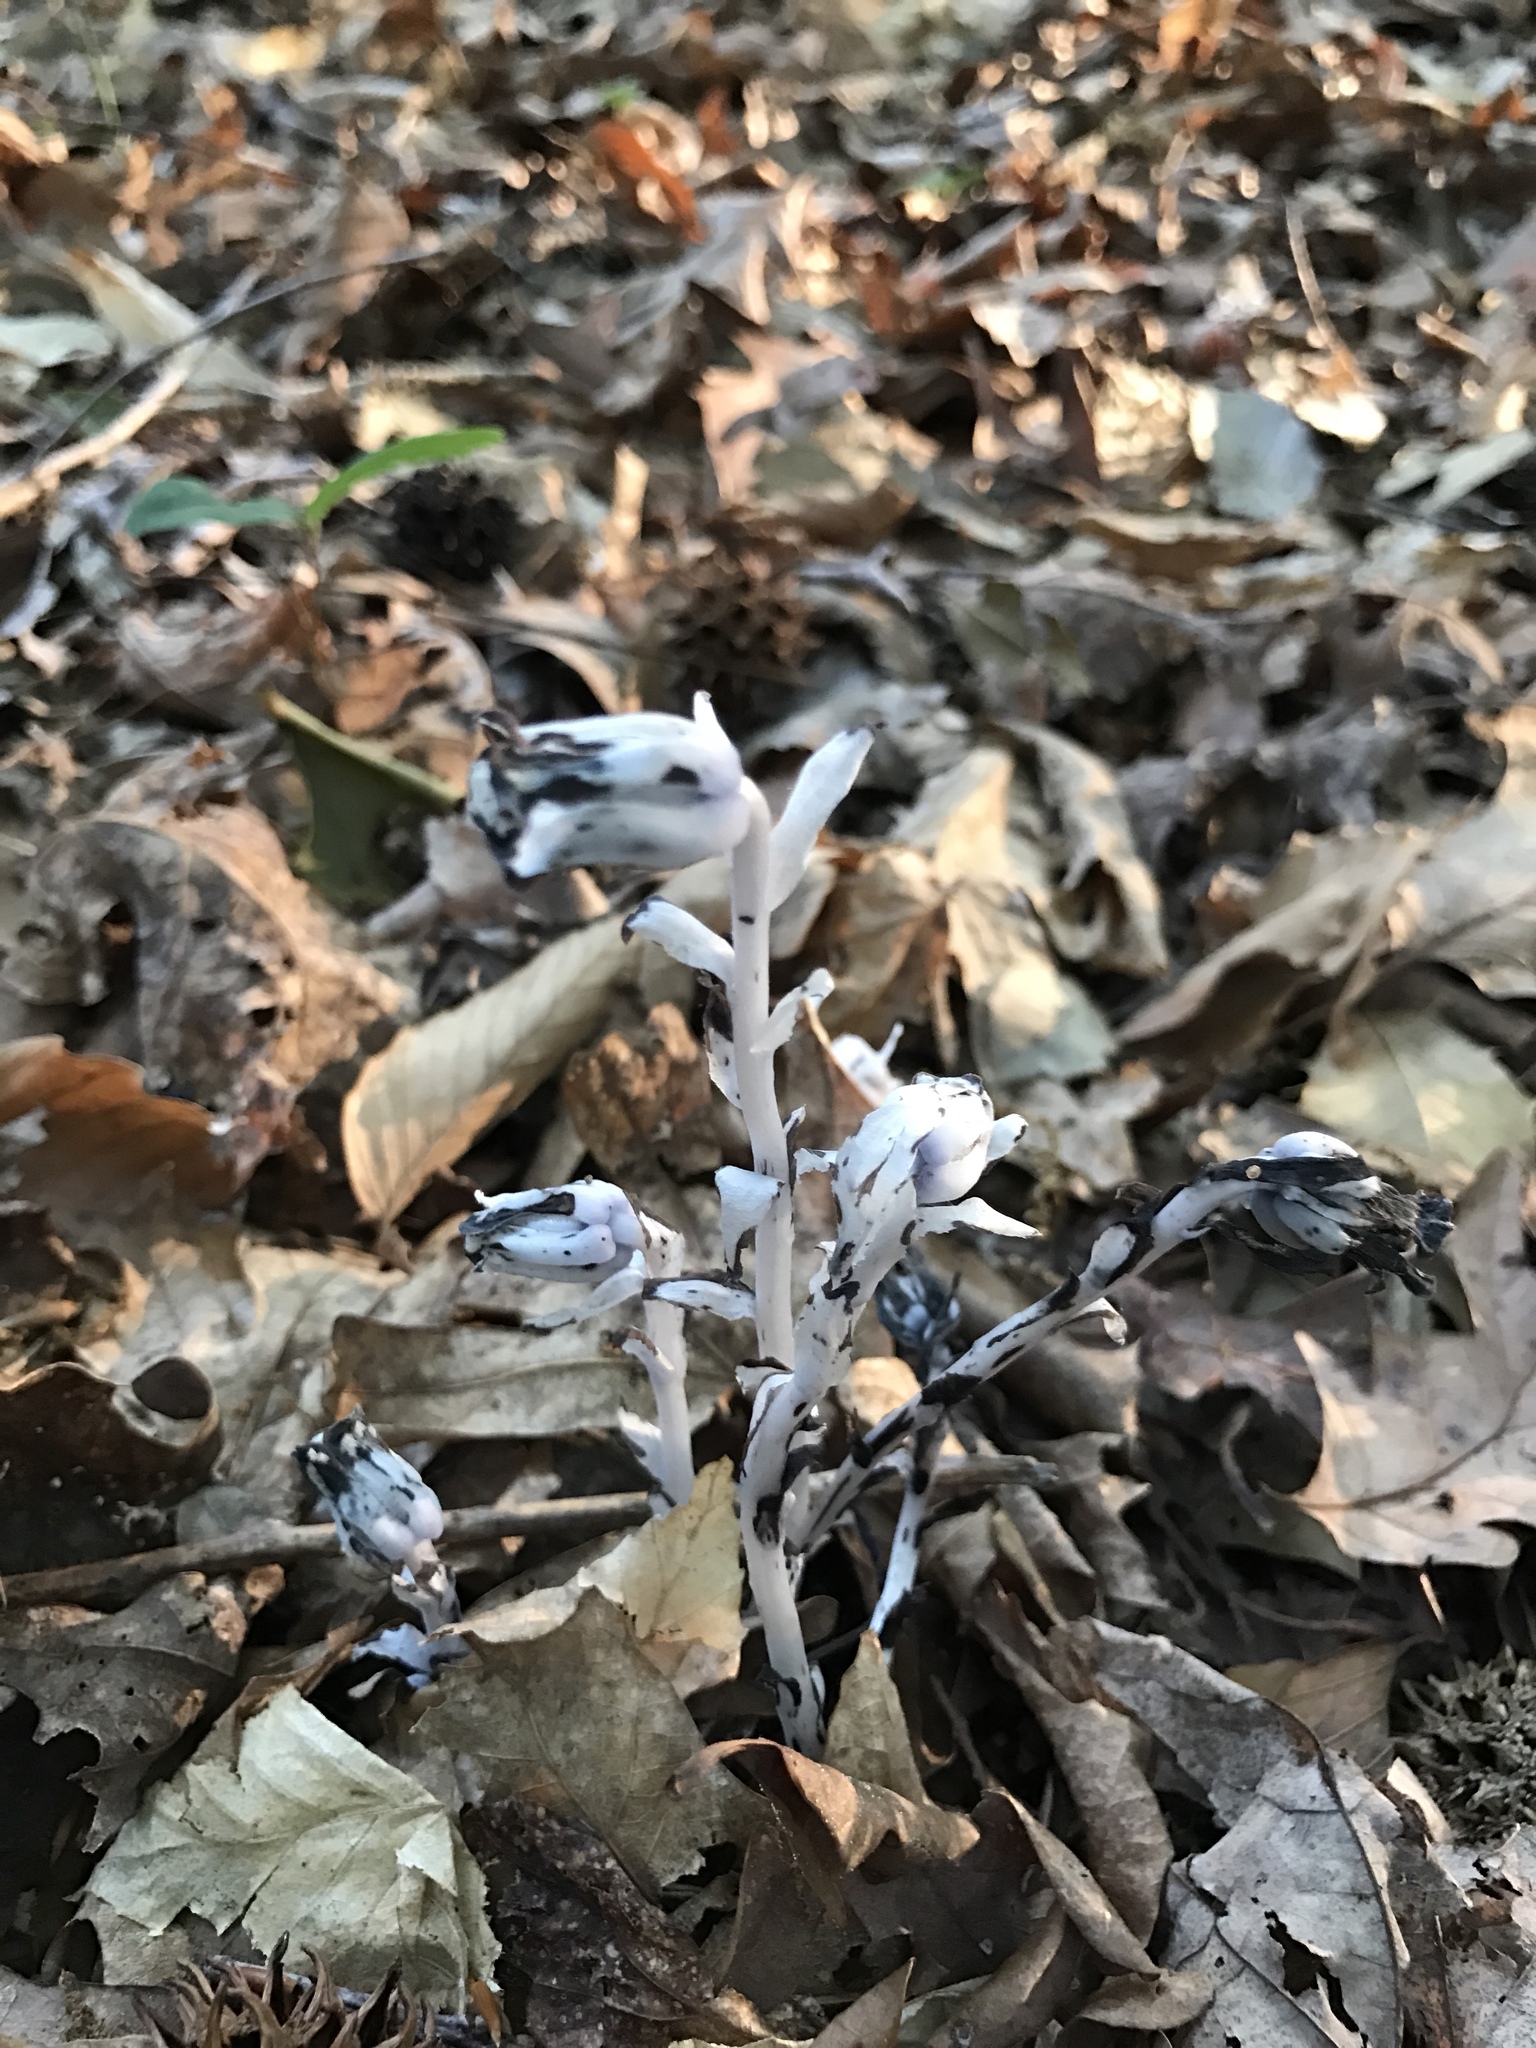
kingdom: Plantae
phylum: Tracheophyta
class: Magnoliopsida
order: Ericales
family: Ericaceae
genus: Monotropa
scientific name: Monotropa uniflora
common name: Convulsion root
